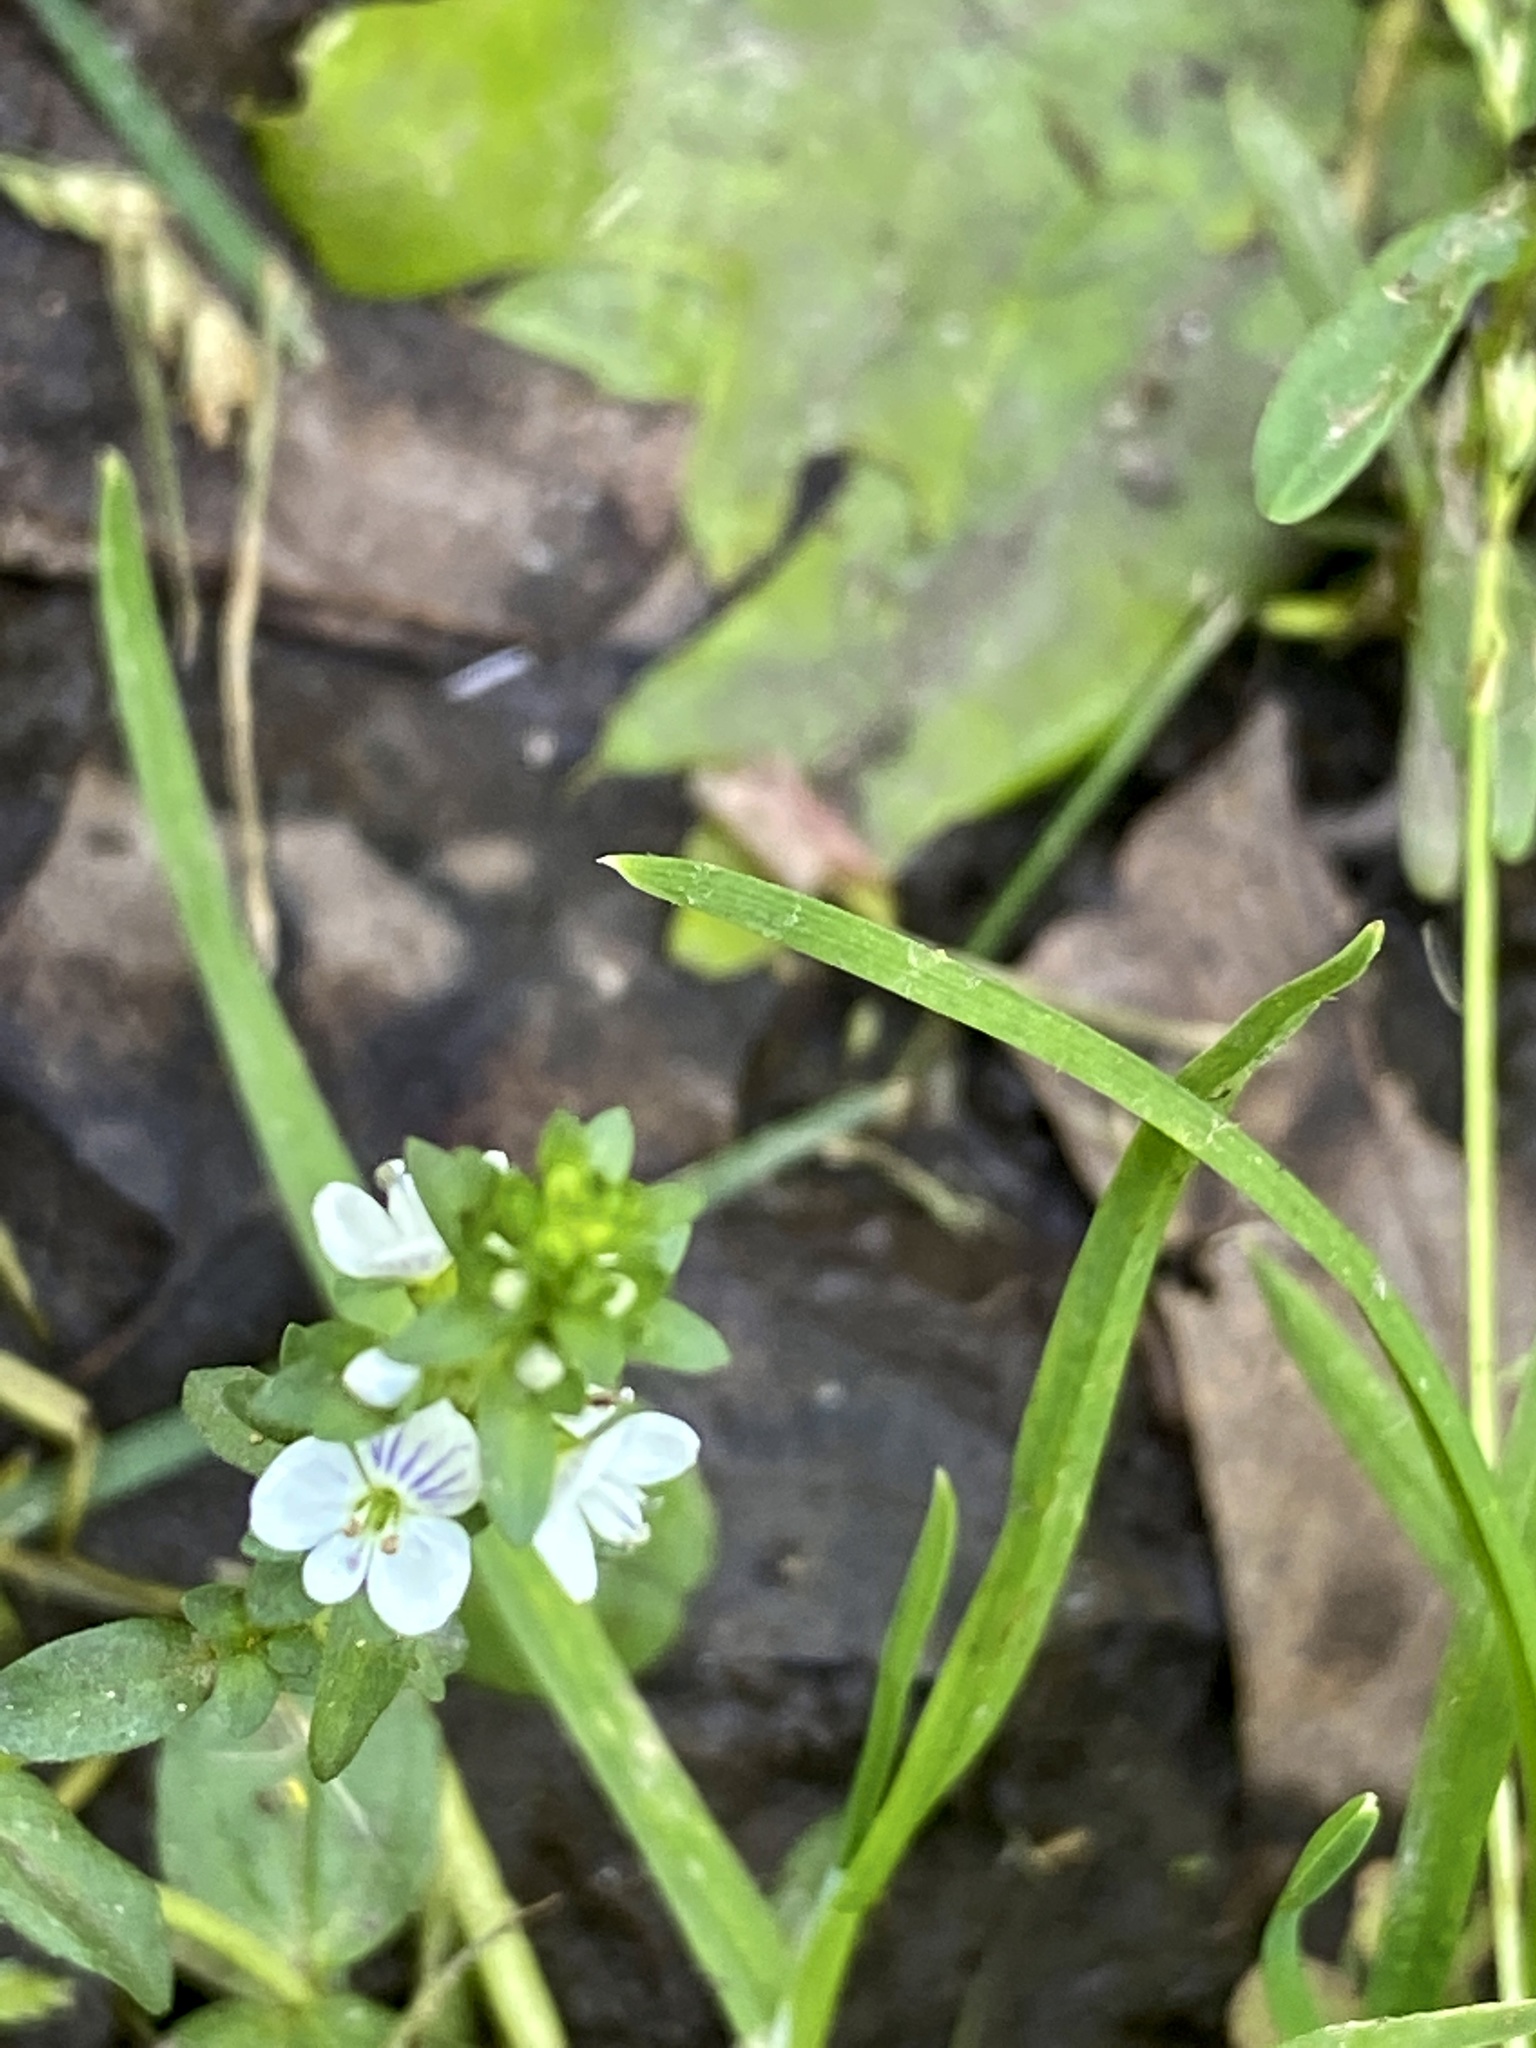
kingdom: Plantae
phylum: Tracheophyta
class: Magnoliopsida
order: Lamiales
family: Plantaginaceae
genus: Veronica
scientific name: Veronica serpyllifolia
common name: Thyme-leaved speedwell
